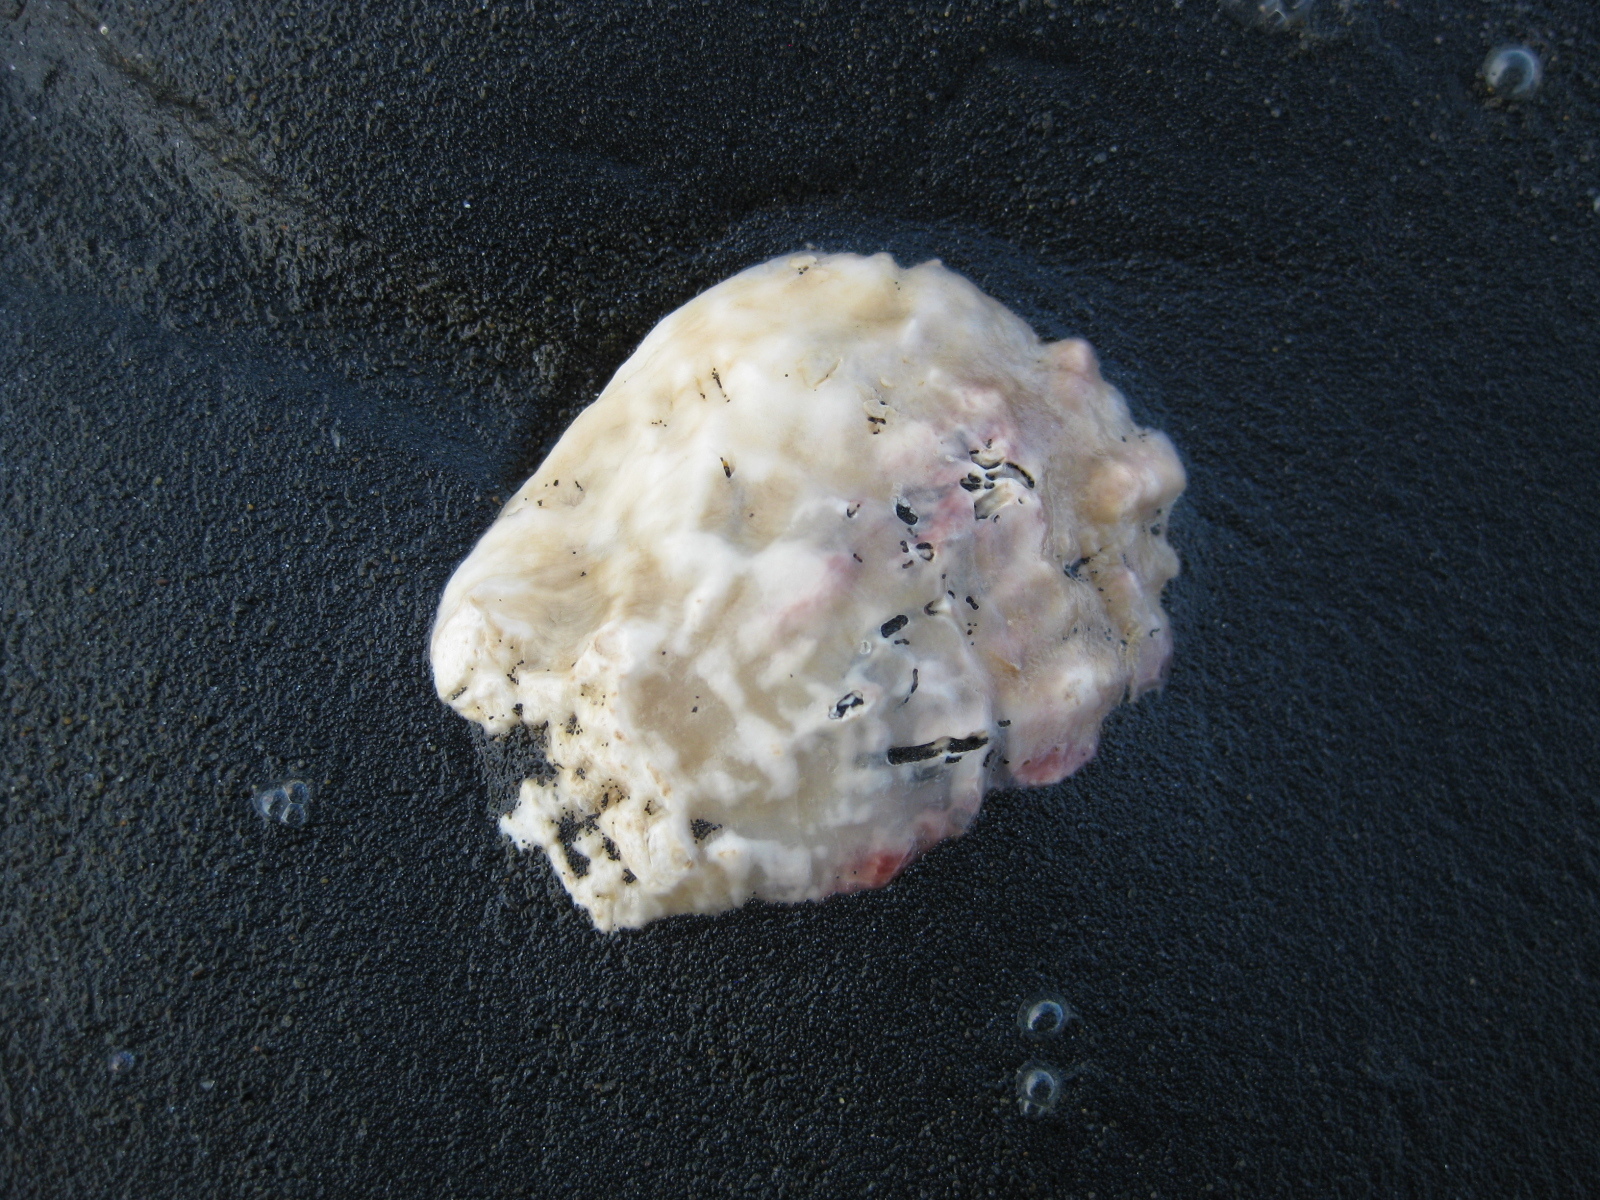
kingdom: Animalia
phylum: Mollusca
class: Bivalvia
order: Ostreida
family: Ostreidae
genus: Ostrea
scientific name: Ostrea chilensis
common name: Chilean oyster
